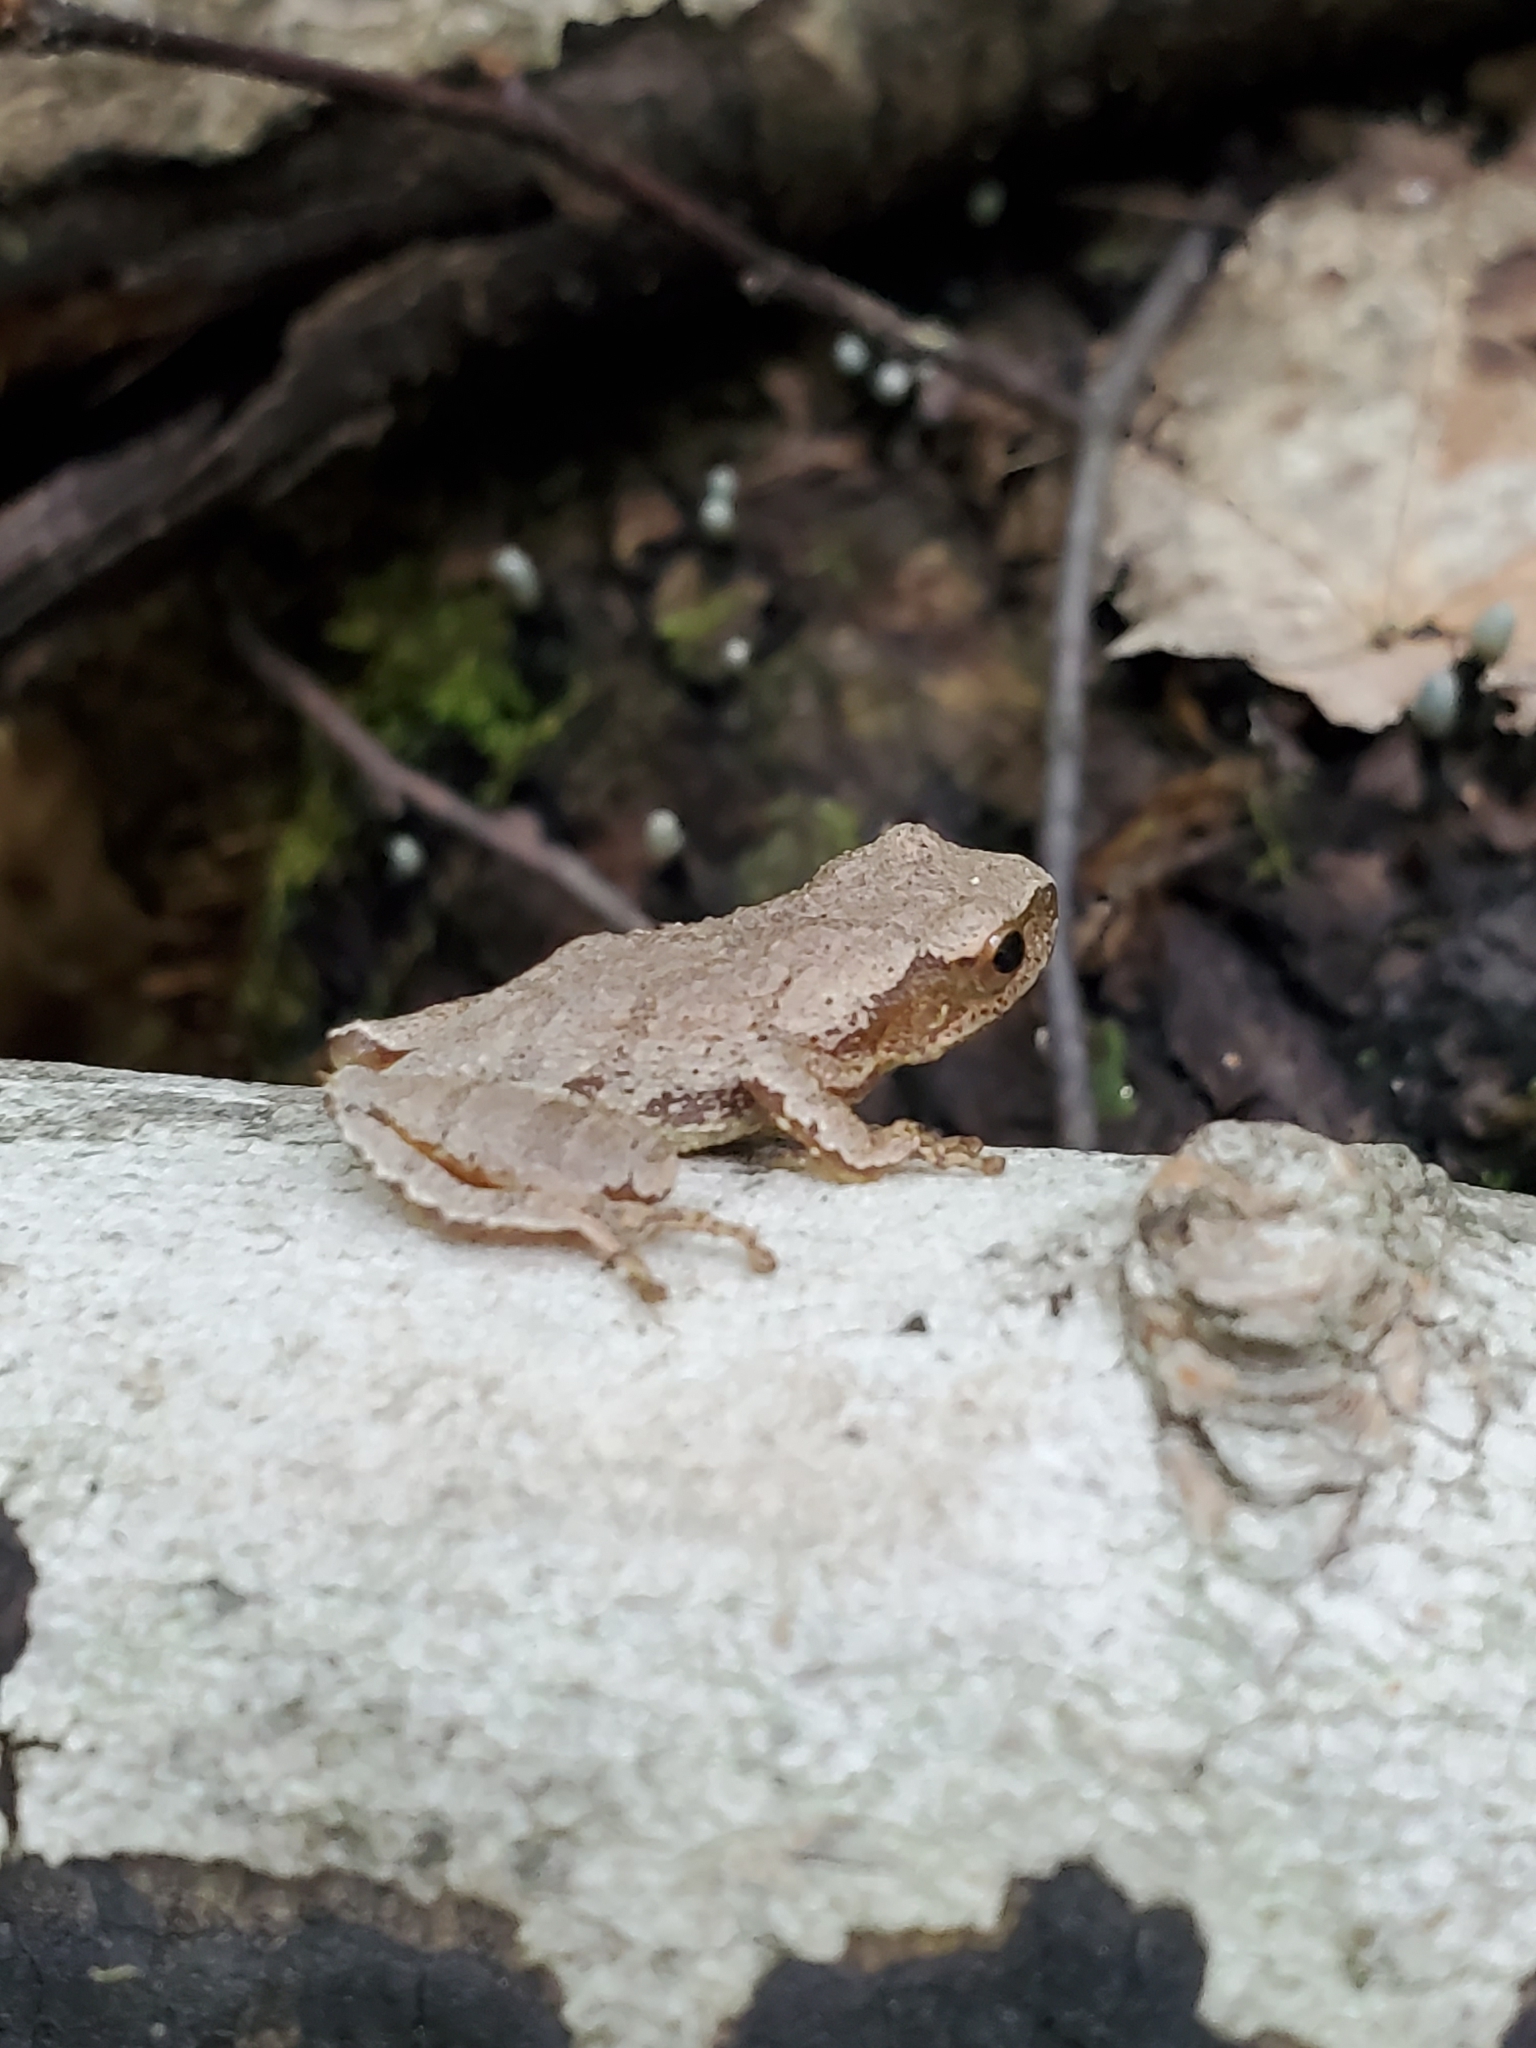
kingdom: Animalia
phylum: Chordata
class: Amphibia
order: Anura
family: Hylidae
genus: Pseudacris
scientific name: Pseudacris crucifer
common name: Spring peeper
